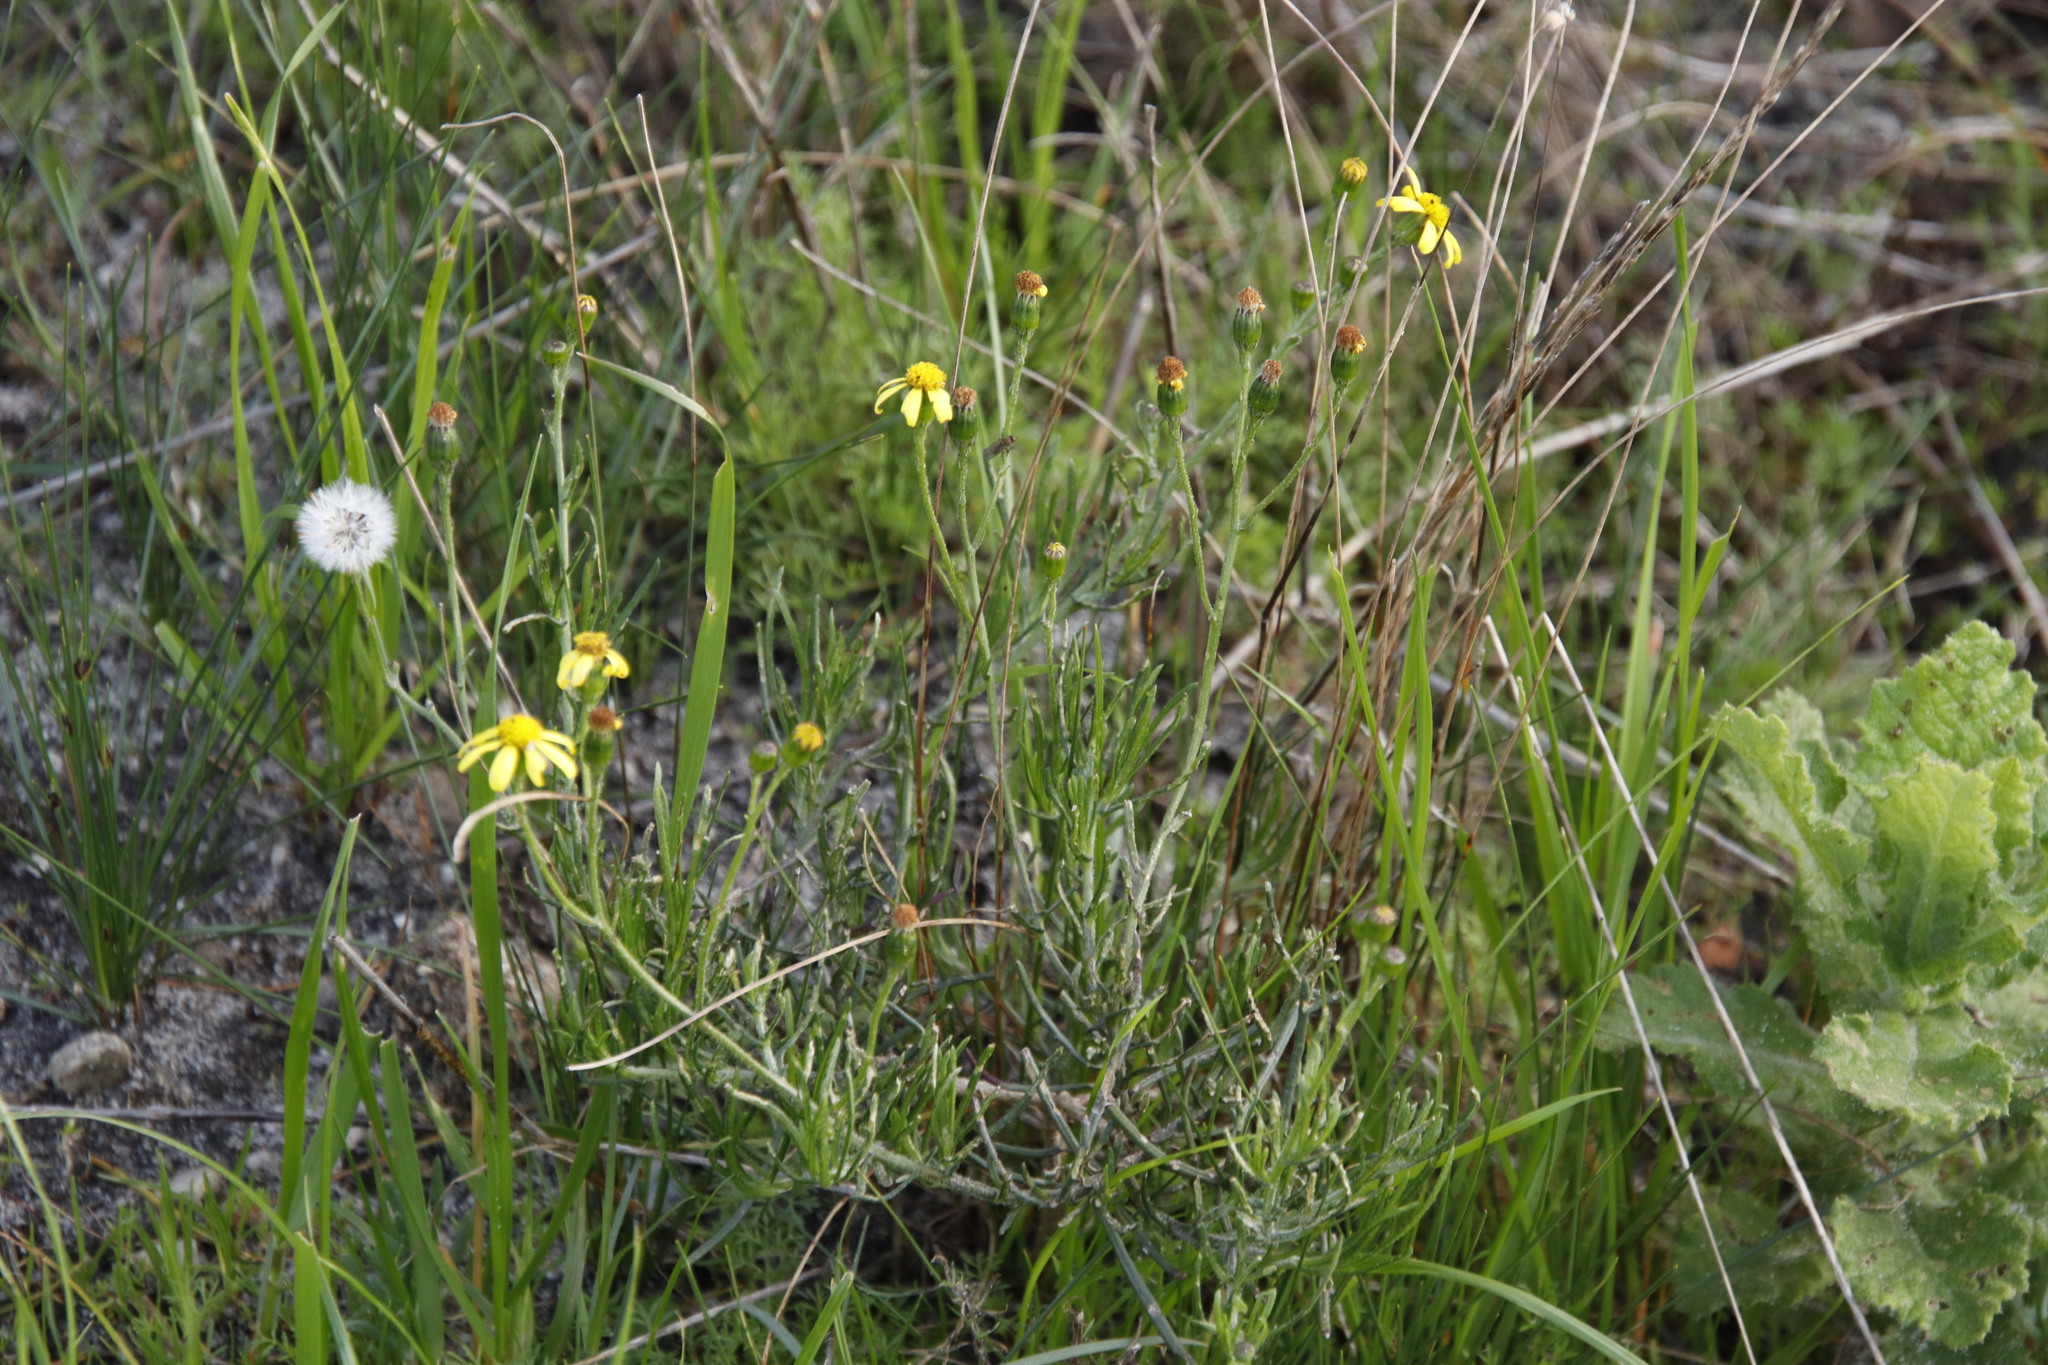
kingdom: Plantae
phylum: Tracheophyta
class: Magnoliopsida
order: Asterales
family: Asteraceae
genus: Senecio
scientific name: Senecio burchellii
